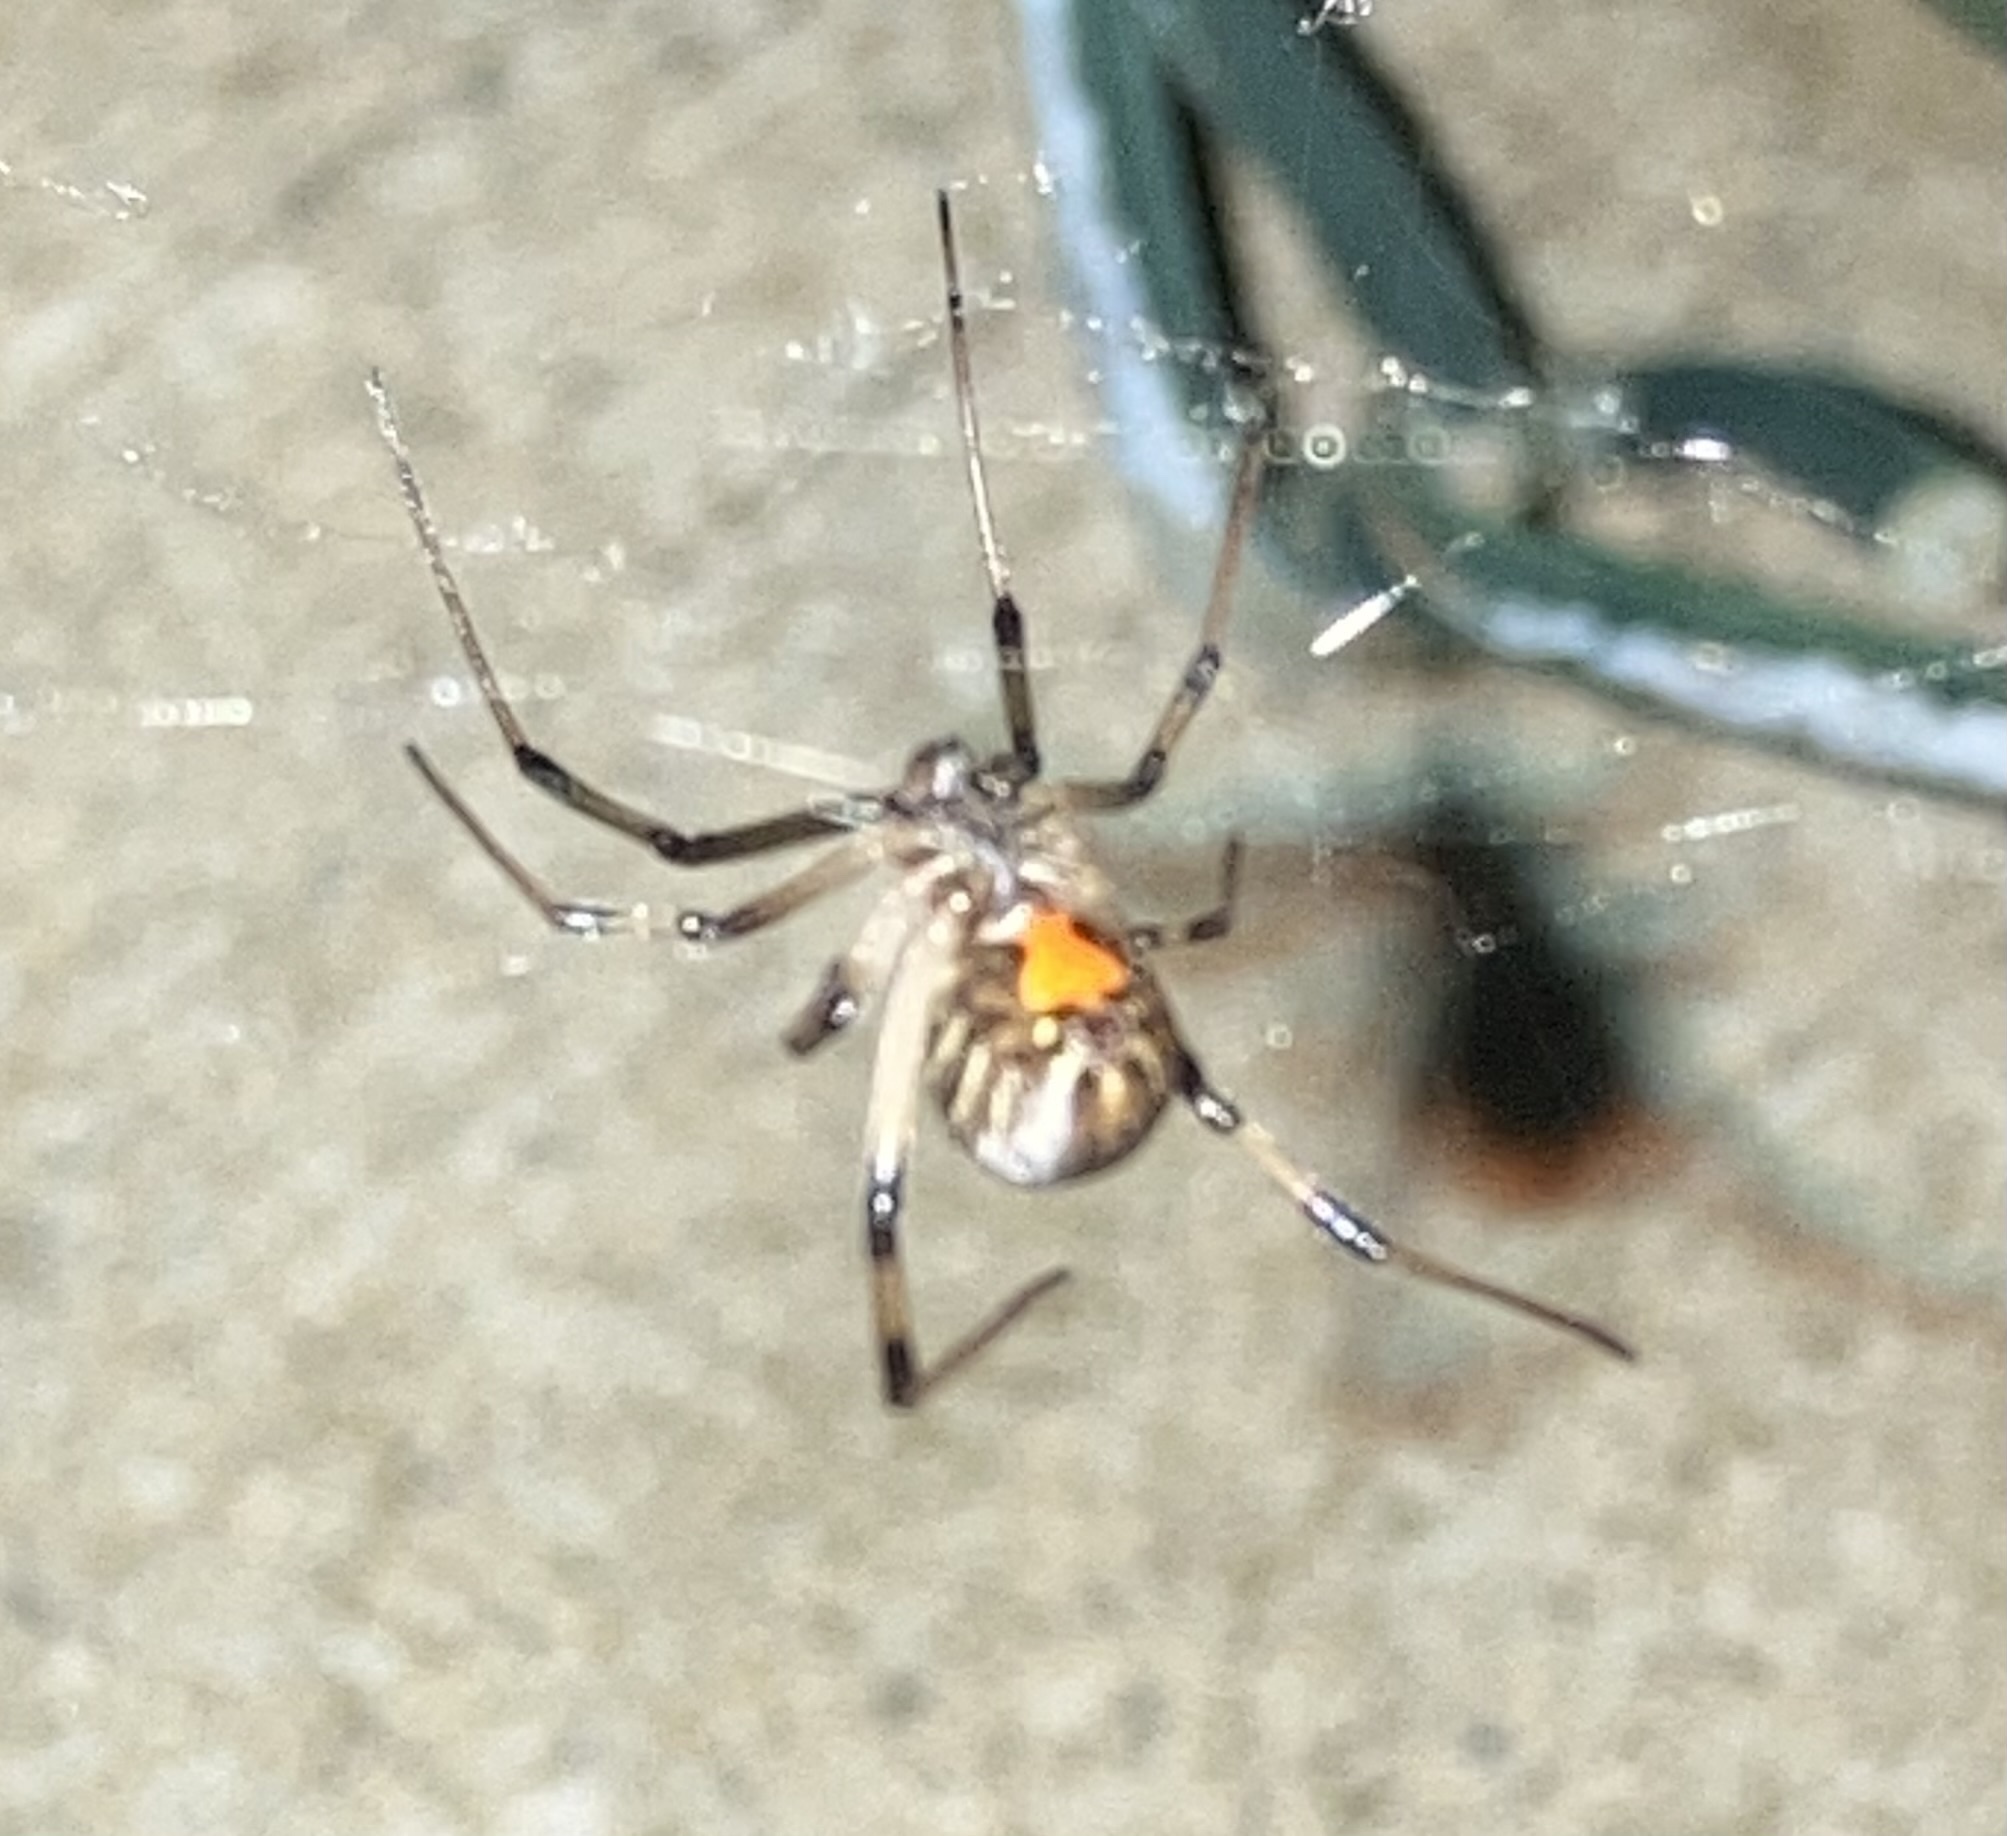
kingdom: Animalia
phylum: Arthropoda
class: Arachnida
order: Araneae
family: Theridiidae
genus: Latrodectus
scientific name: Latrodectus geometricus
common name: Brown widow spider
